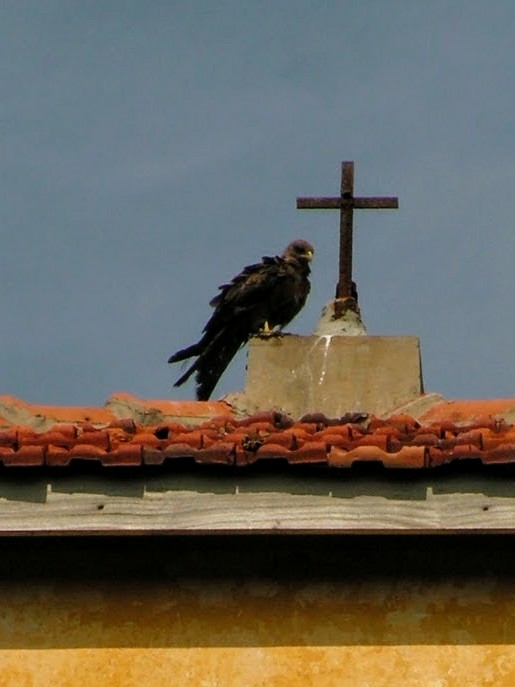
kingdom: Animalia
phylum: Chordata
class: Aves
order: Accipitriformes
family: Accipitridae
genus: Milvus
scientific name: Milvus migrans
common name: Black kite
